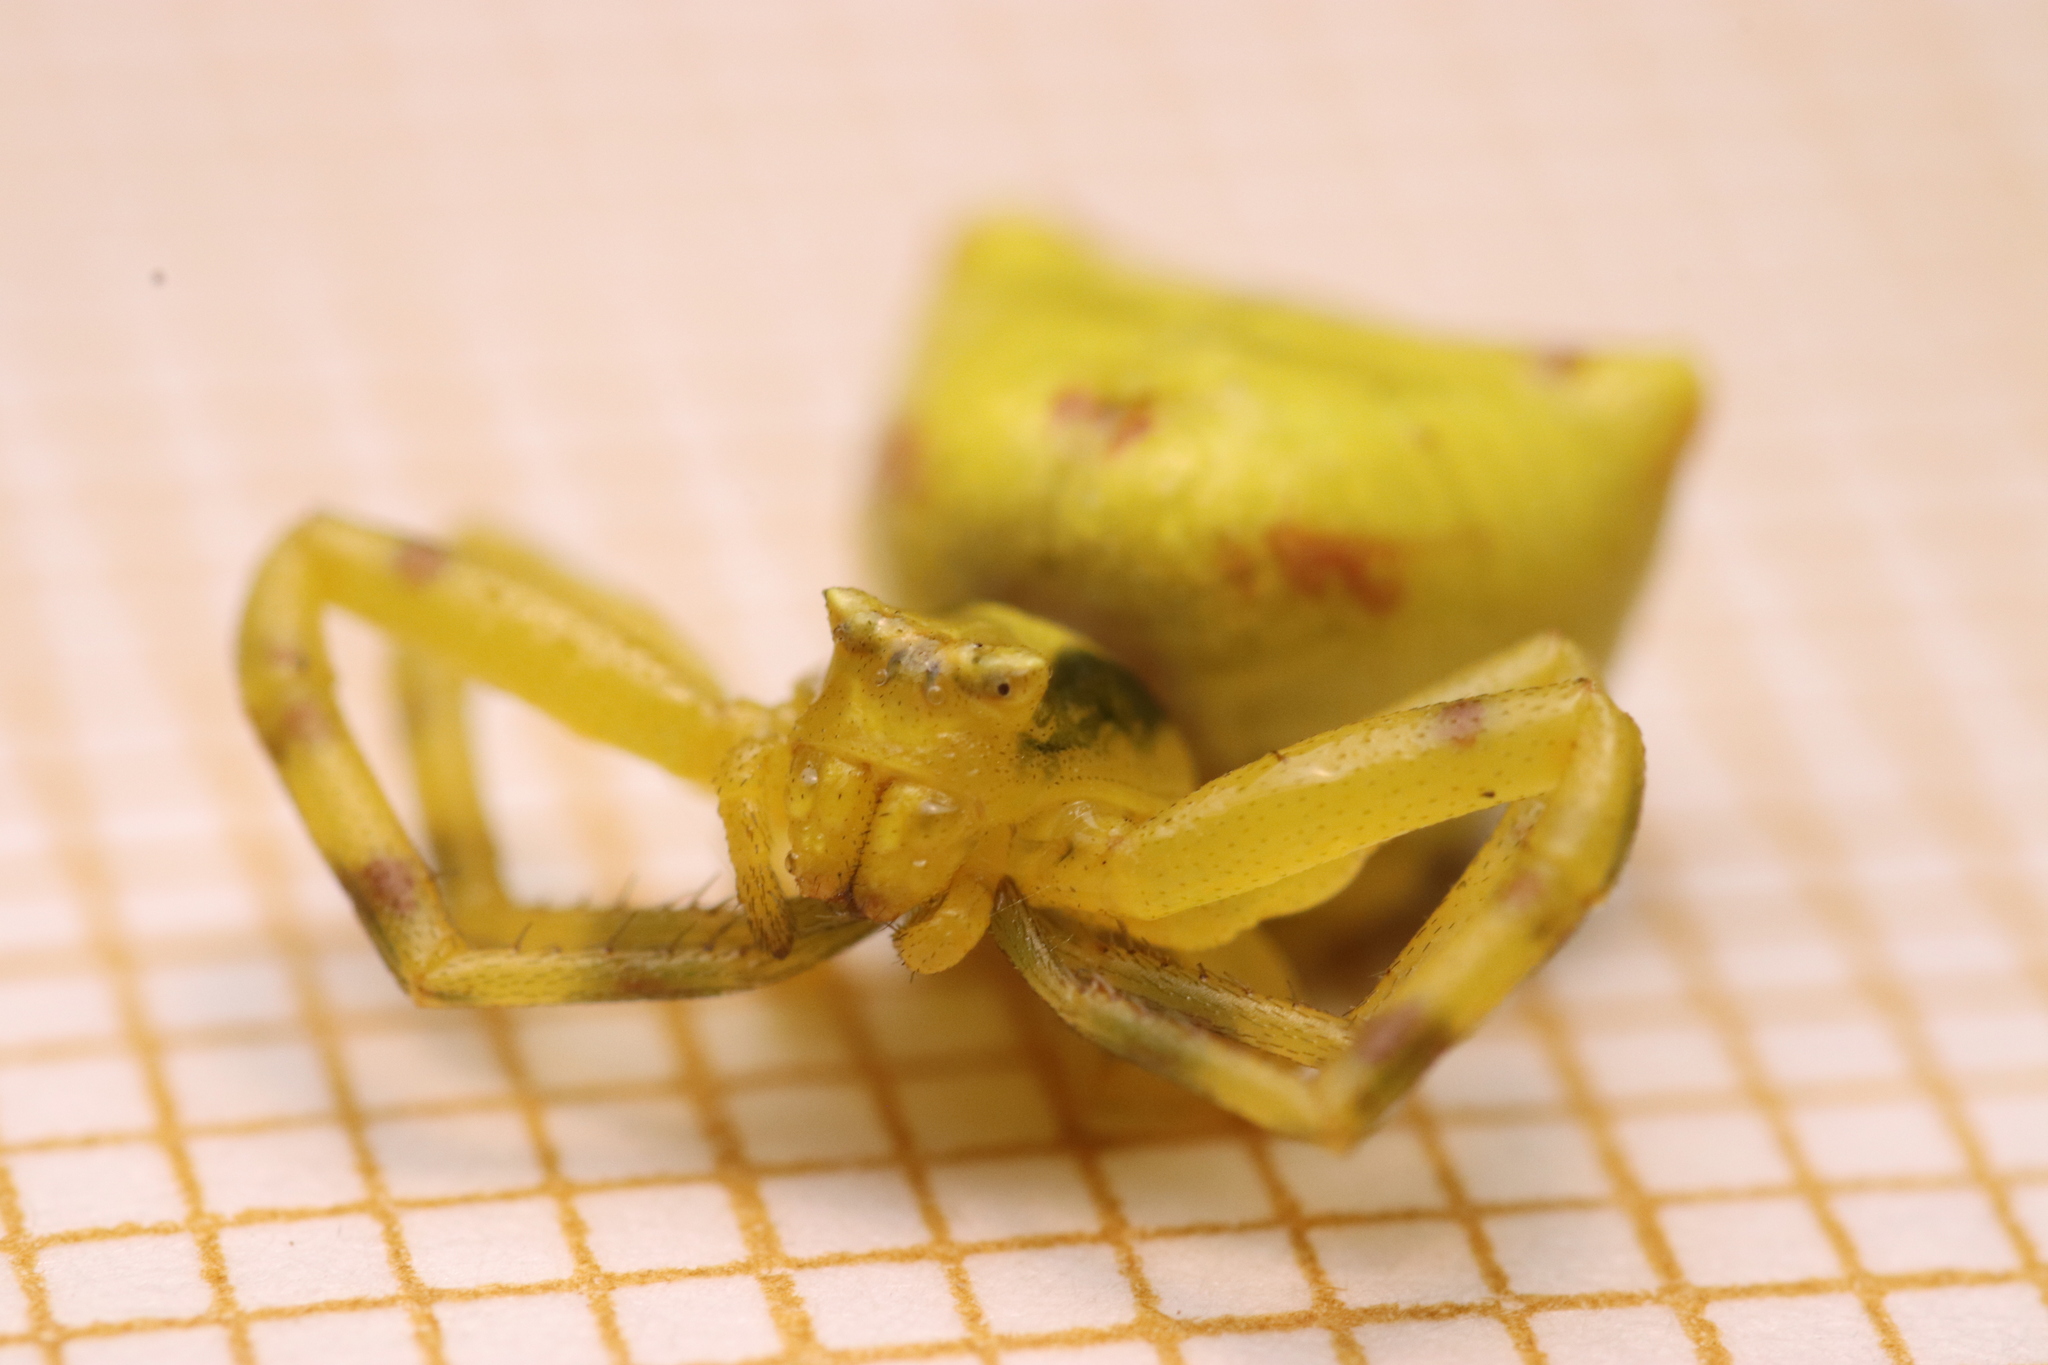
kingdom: Animalia
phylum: Arthropoda
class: Arachnida
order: Araneae
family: Thomisidae
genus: Thomisus
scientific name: Thomisus onustus
